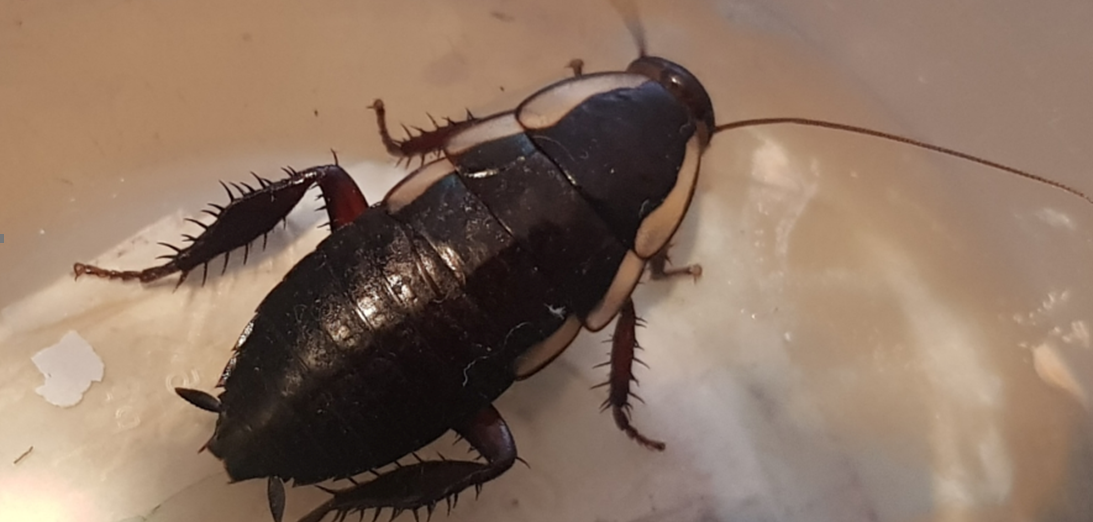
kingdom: Animalia
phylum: Arthropoda
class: Insecta
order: Blattodea
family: Blattidae
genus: Drymaplaneta
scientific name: Drymaplaneta semivitta
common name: Gisborne cockroach
